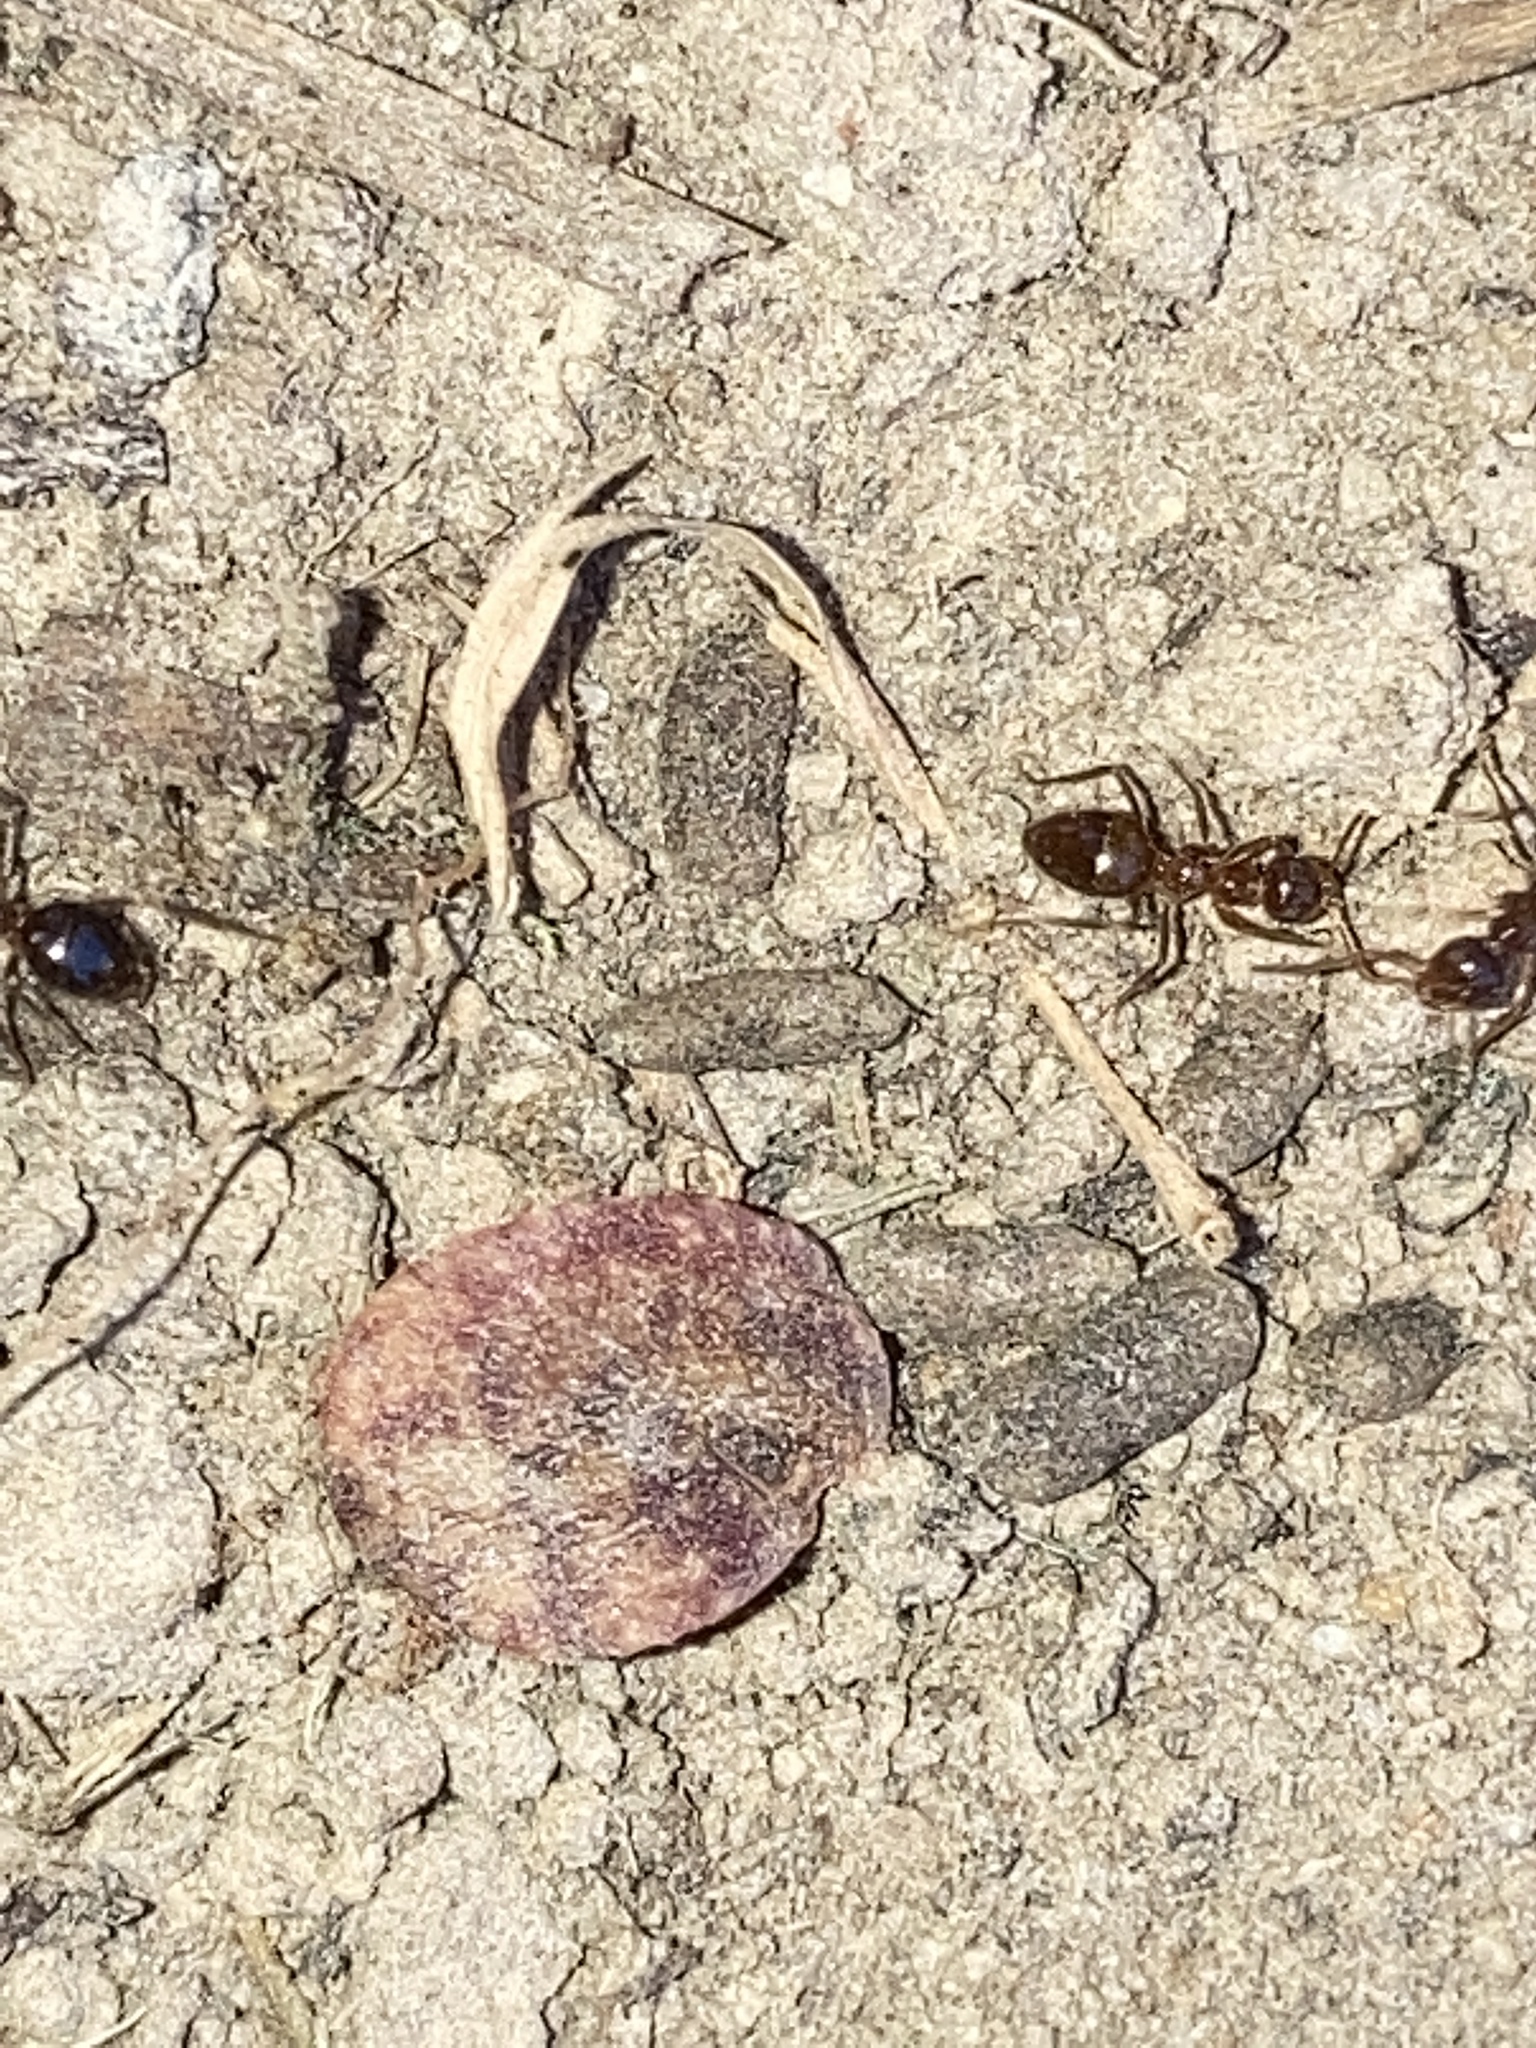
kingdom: Animalia
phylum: Arthropoda
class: Insecta
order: Hymenoptera
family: Formicidae
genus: Prenolepis
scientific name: Prenolepis imparis
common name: Small honey ant
